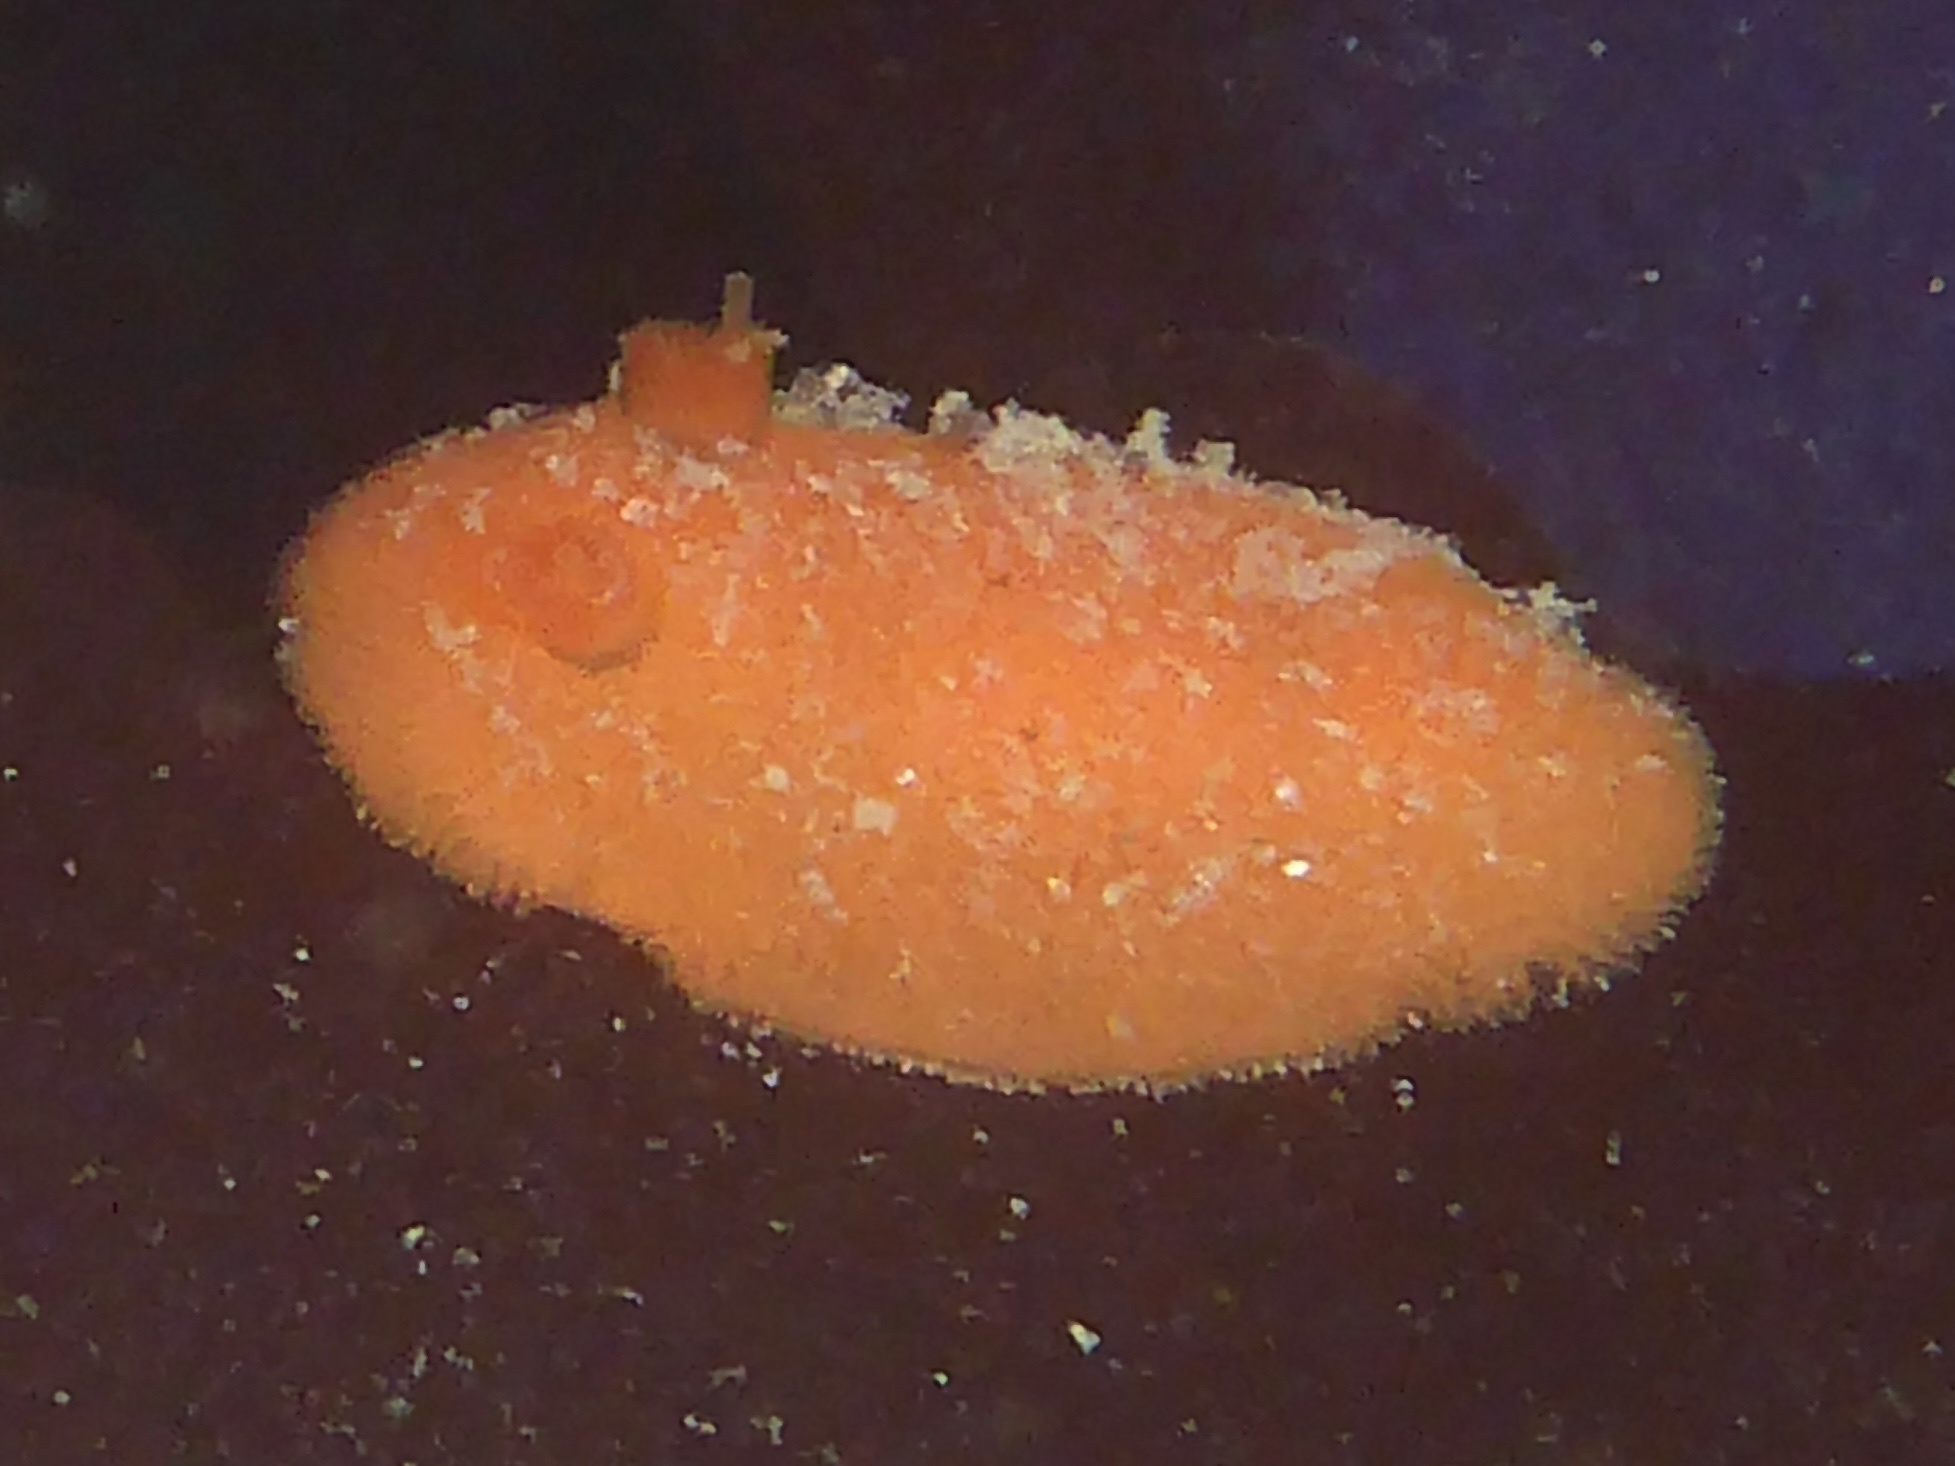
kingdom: Animalia
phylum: Mollusca
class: Gastropoda
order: Nudibranchia
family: Discodorididae
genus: Rostanga
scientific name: Rostanga pulchra
